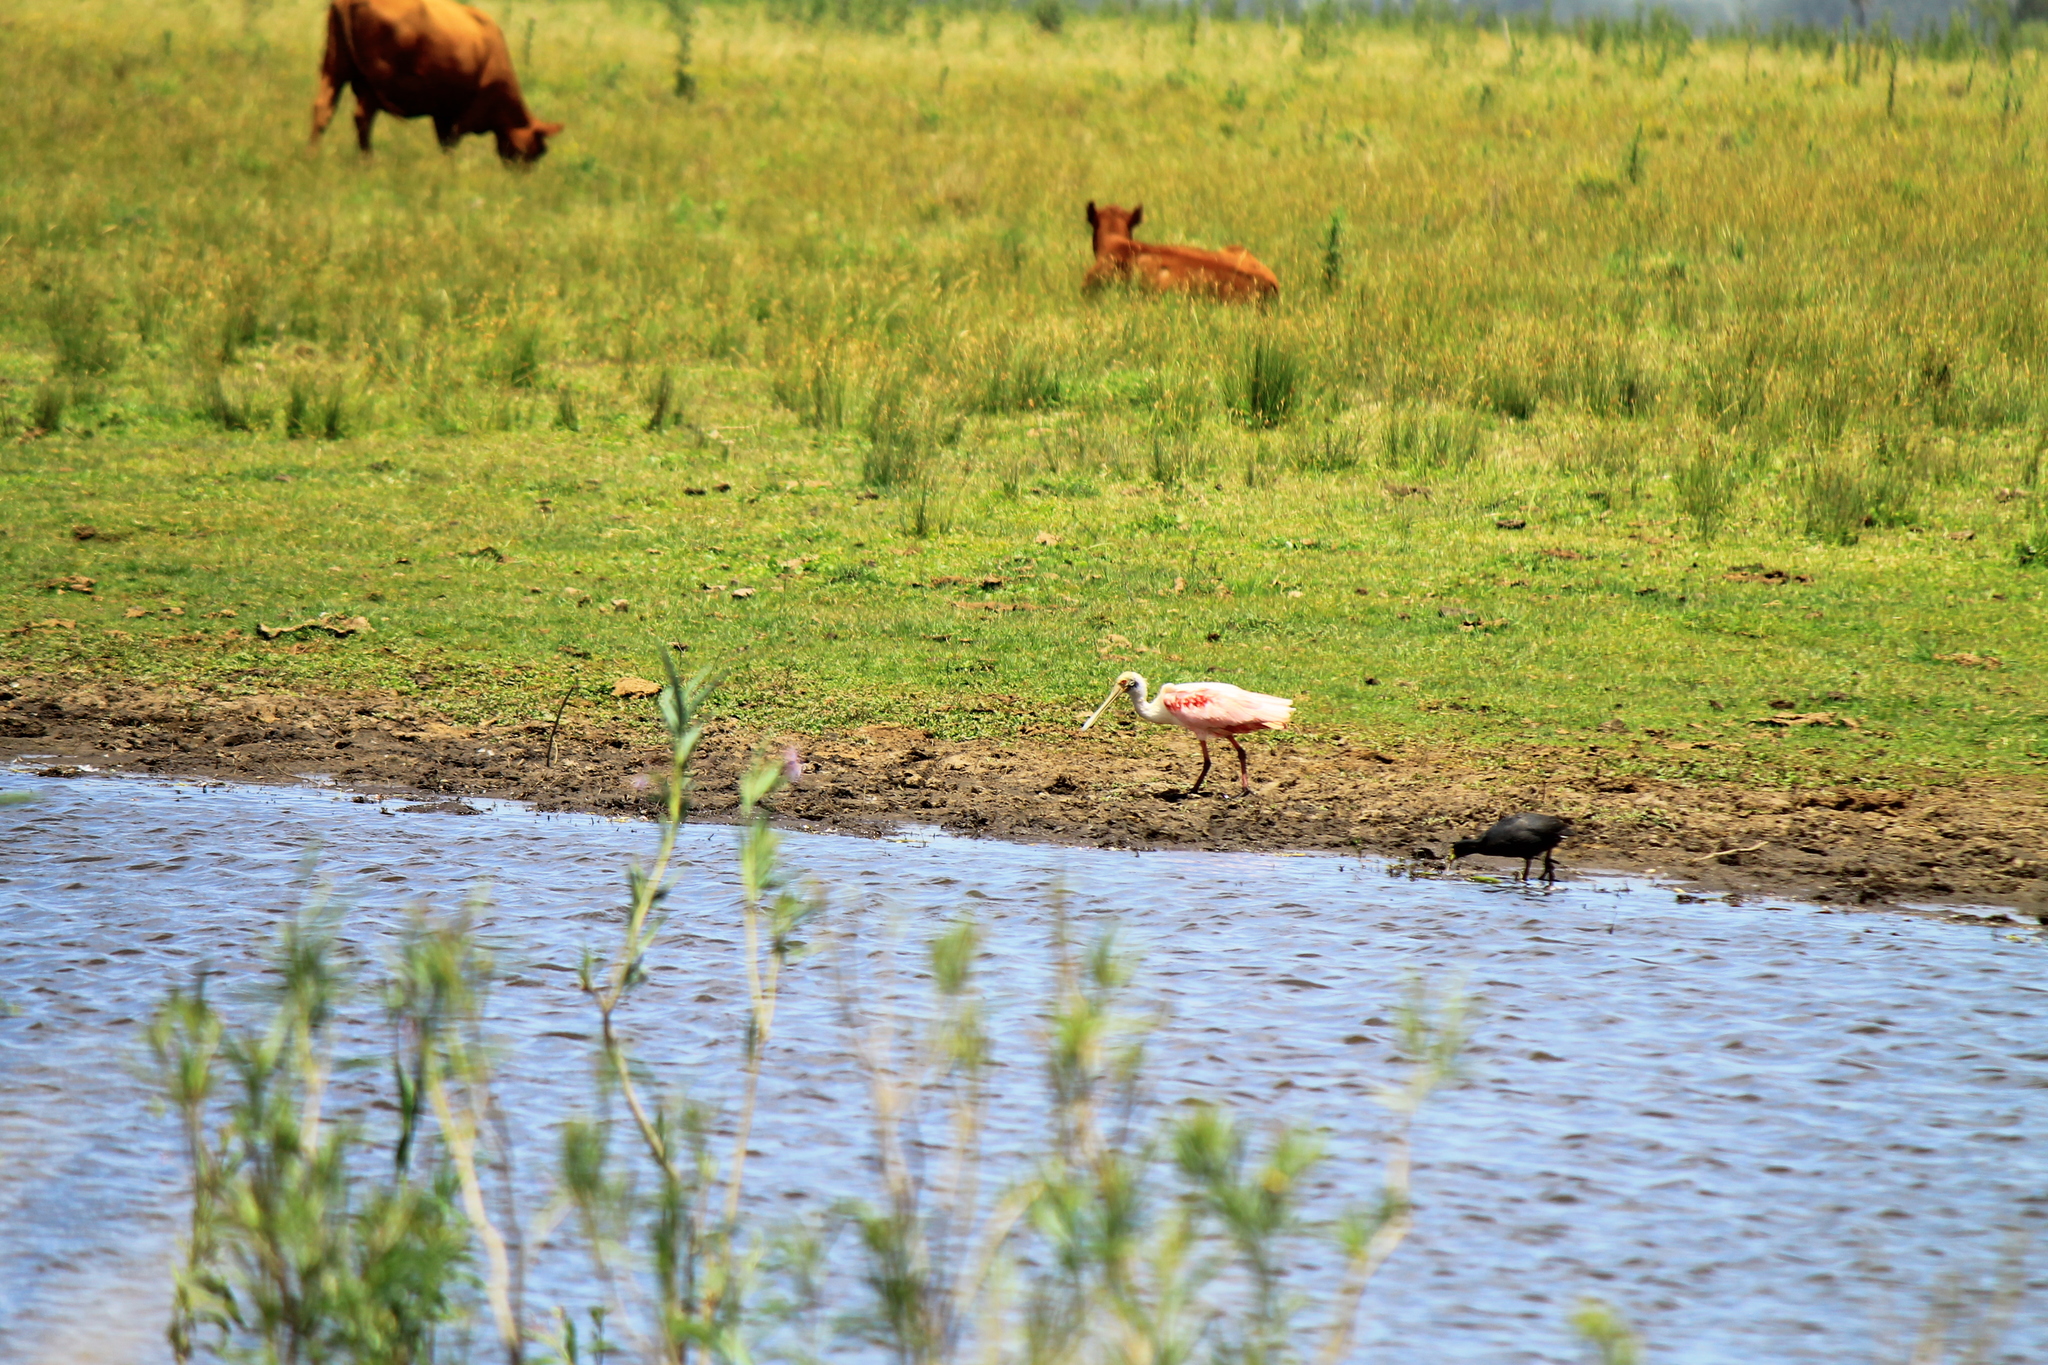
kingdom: Animalia
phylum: Chordata
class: Aves
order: Pelecaniformes
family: Threskiornithidae
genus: Platalea
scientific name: Platalea ajaja
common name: Roseate spoonbill
